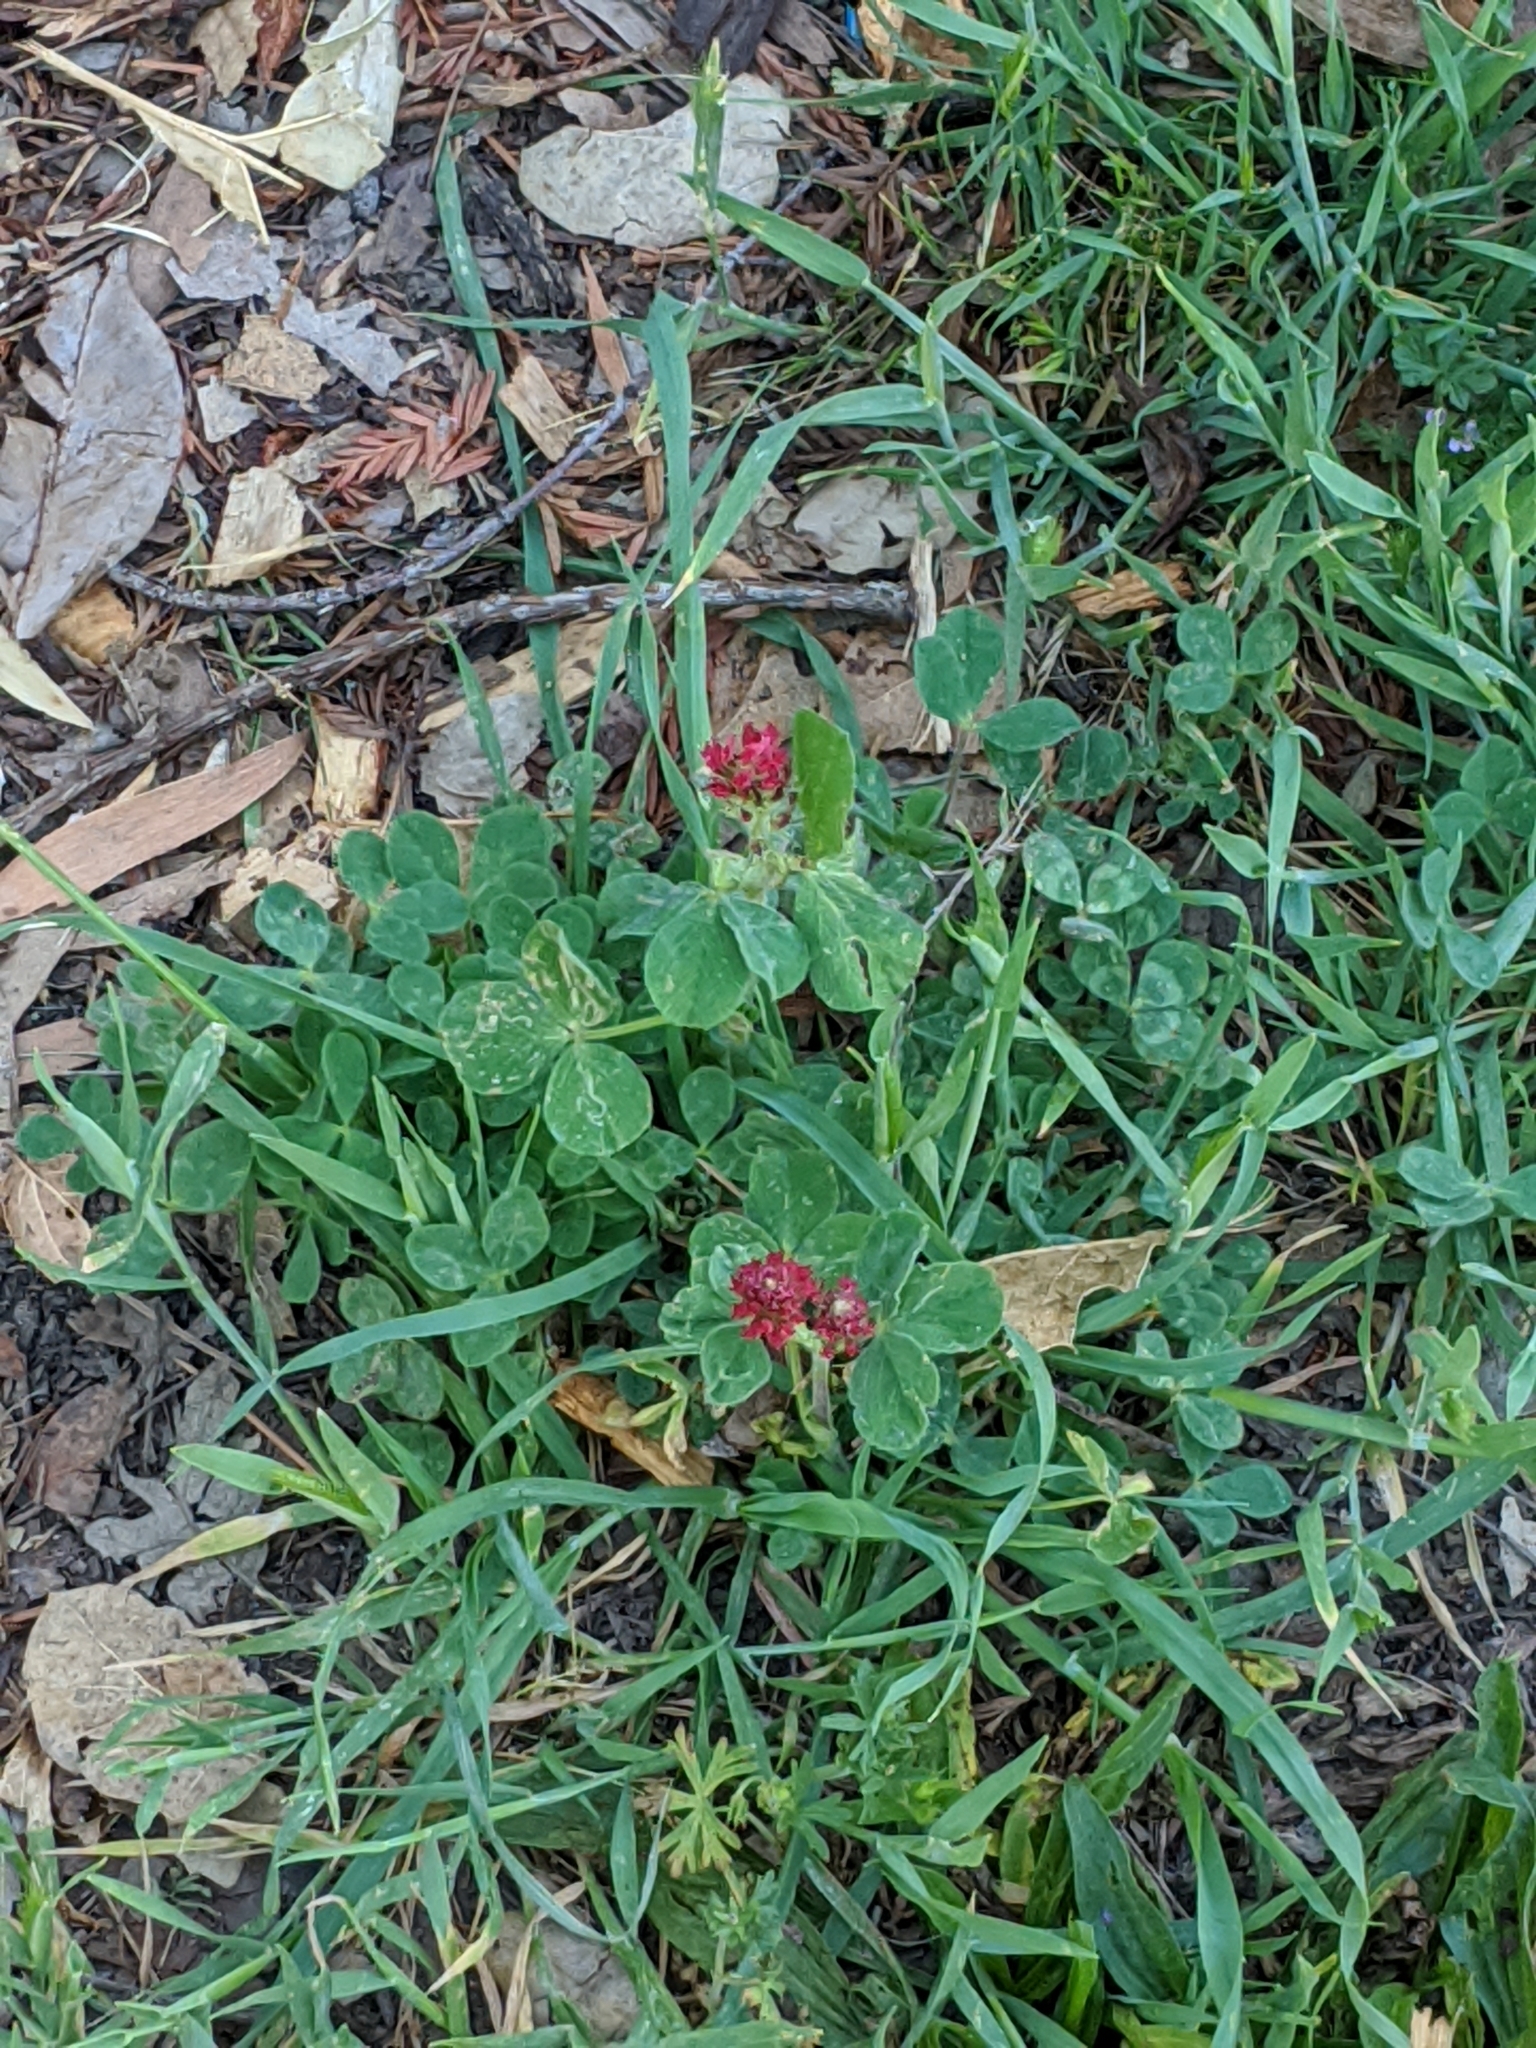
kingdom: Plantae
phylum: Tracheophyta
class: Magnoliopsida
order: Fabales
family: Fabaceae
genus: Trifolium
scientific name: Trifolium incarnatum
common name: Crimson clover
